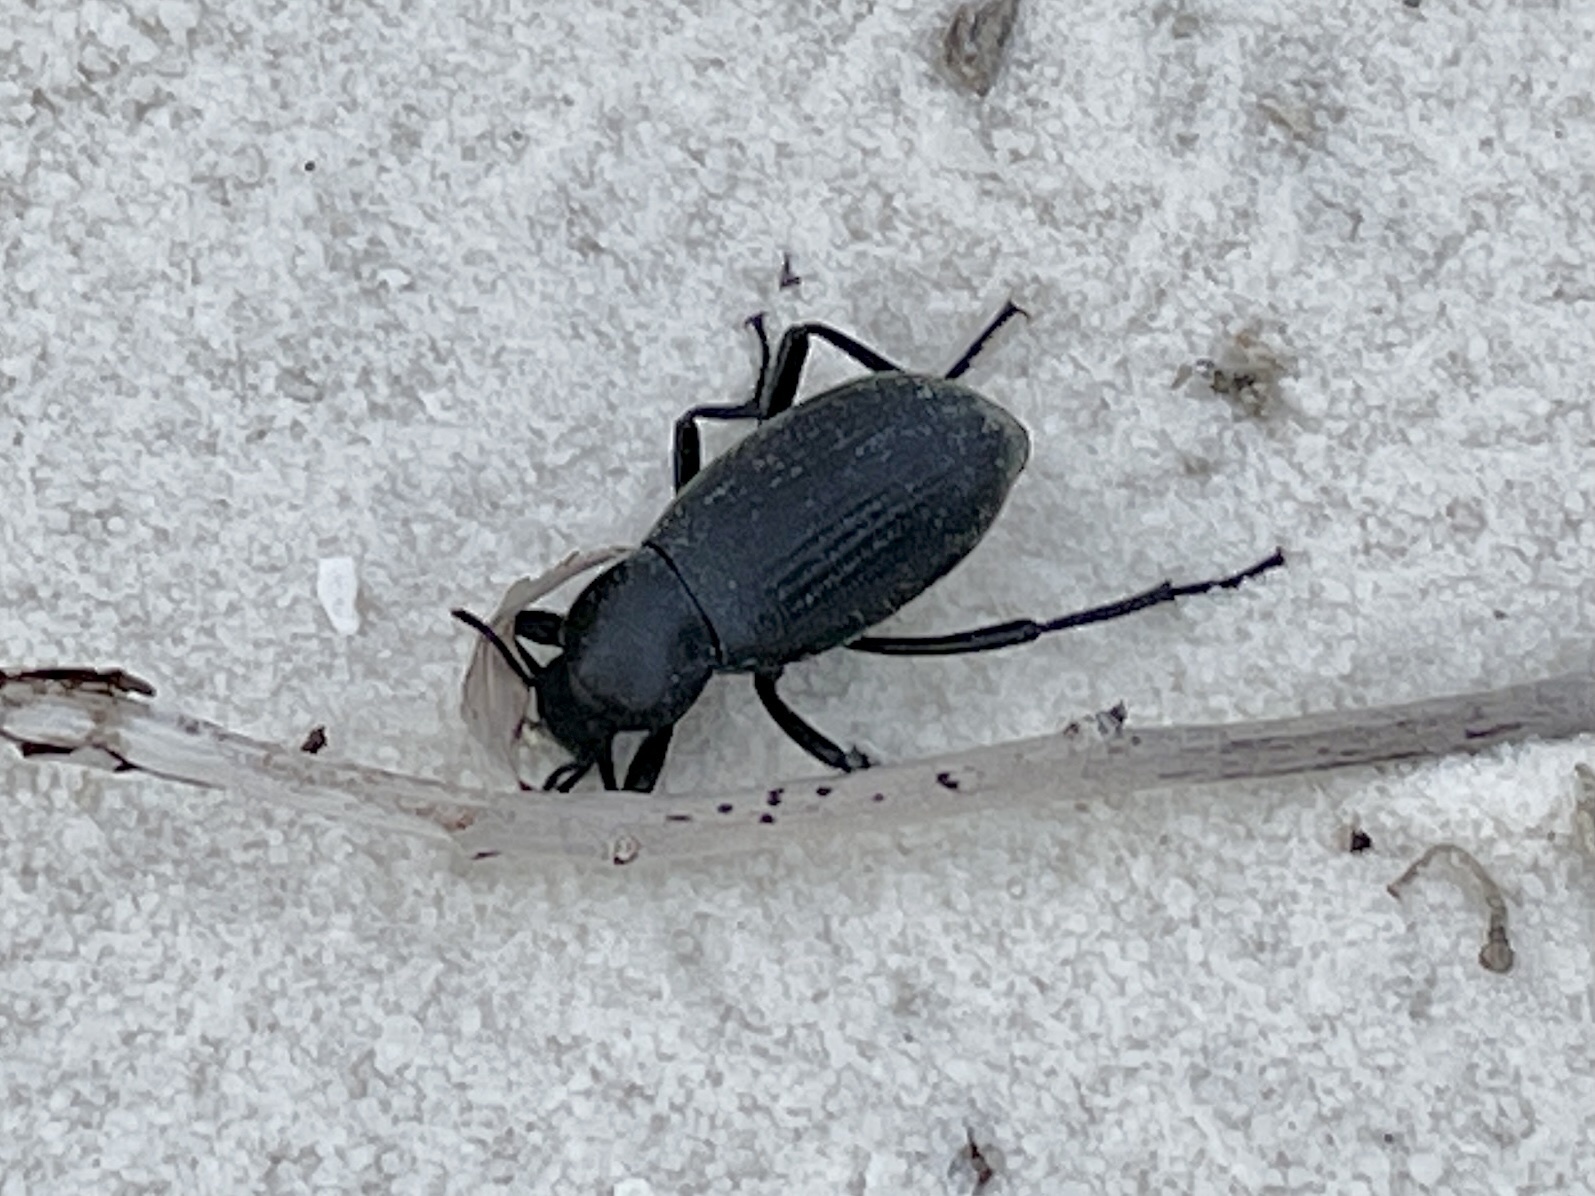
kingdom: Animalia
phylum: Arthropoda
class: Insecta
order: Coleoptera
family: Tenebrionidae
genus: Eleodes
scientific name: Eleodes carbonaria
